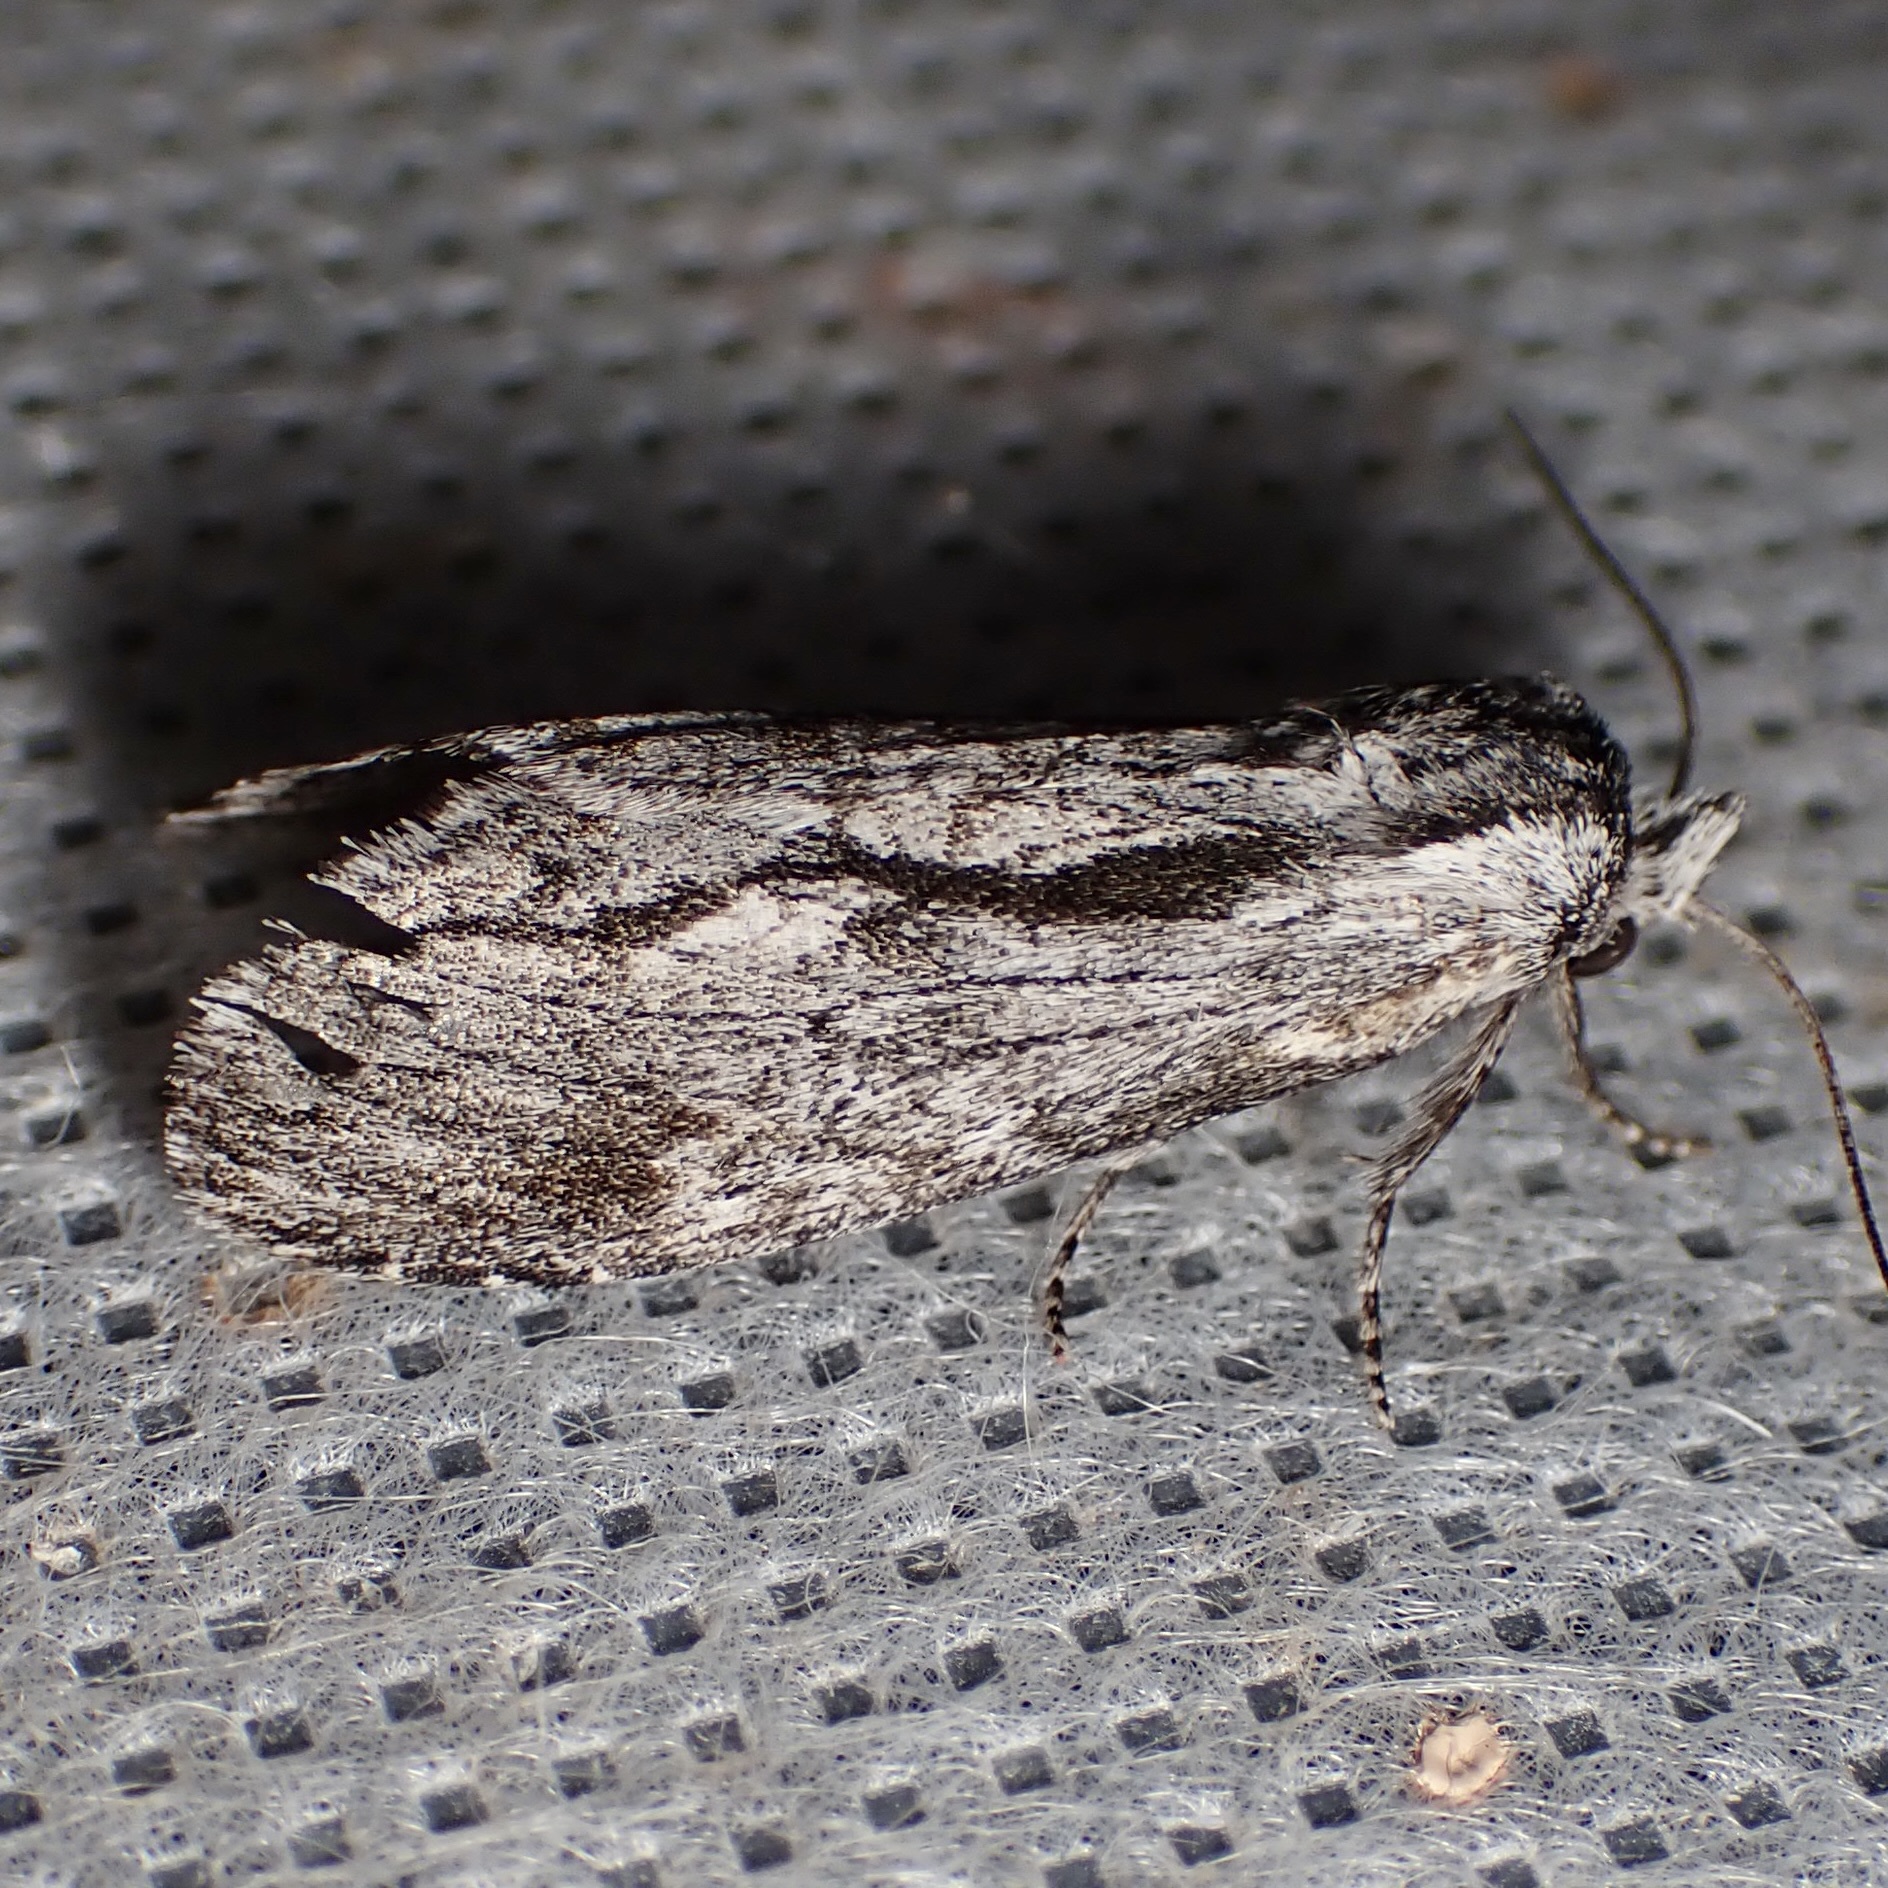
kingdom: Animalia
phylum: Arthropoda
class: Insecta
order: Lepidoptera
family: Notodontidae
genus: Notela
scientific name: Notela jaliscana
